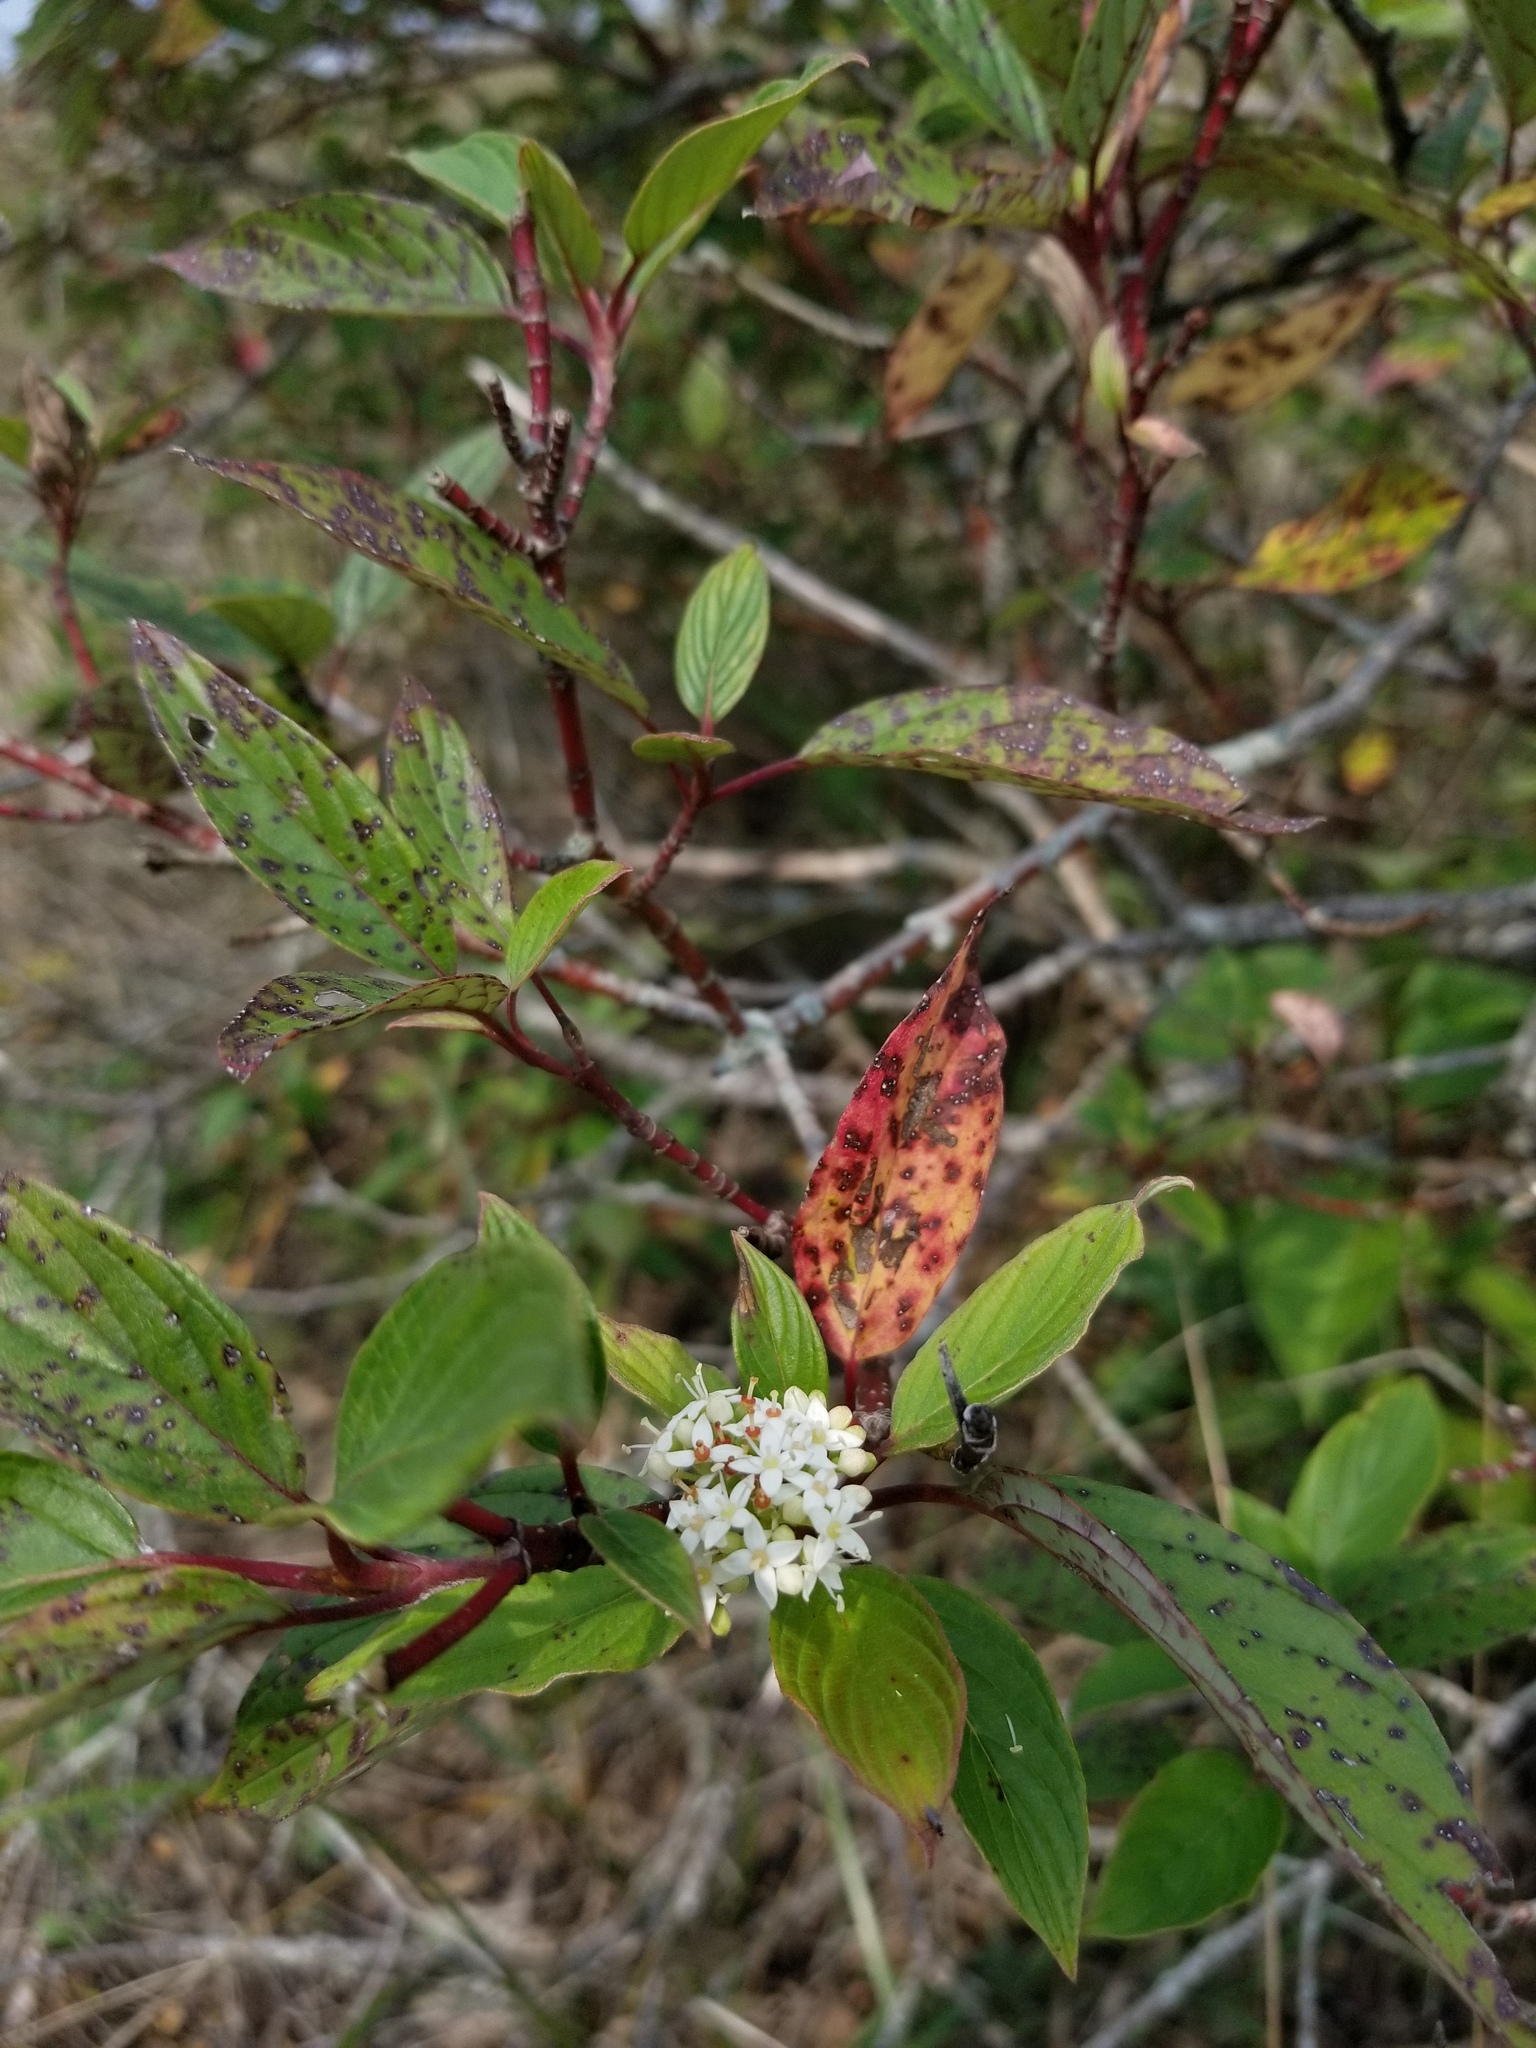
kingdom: Plantae
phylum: Tracheophyta
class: Magnoliopsida
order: Cornales
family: Cornaceae
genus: Cornus
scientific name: Cornus sericea
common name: Red-osier dogwood
